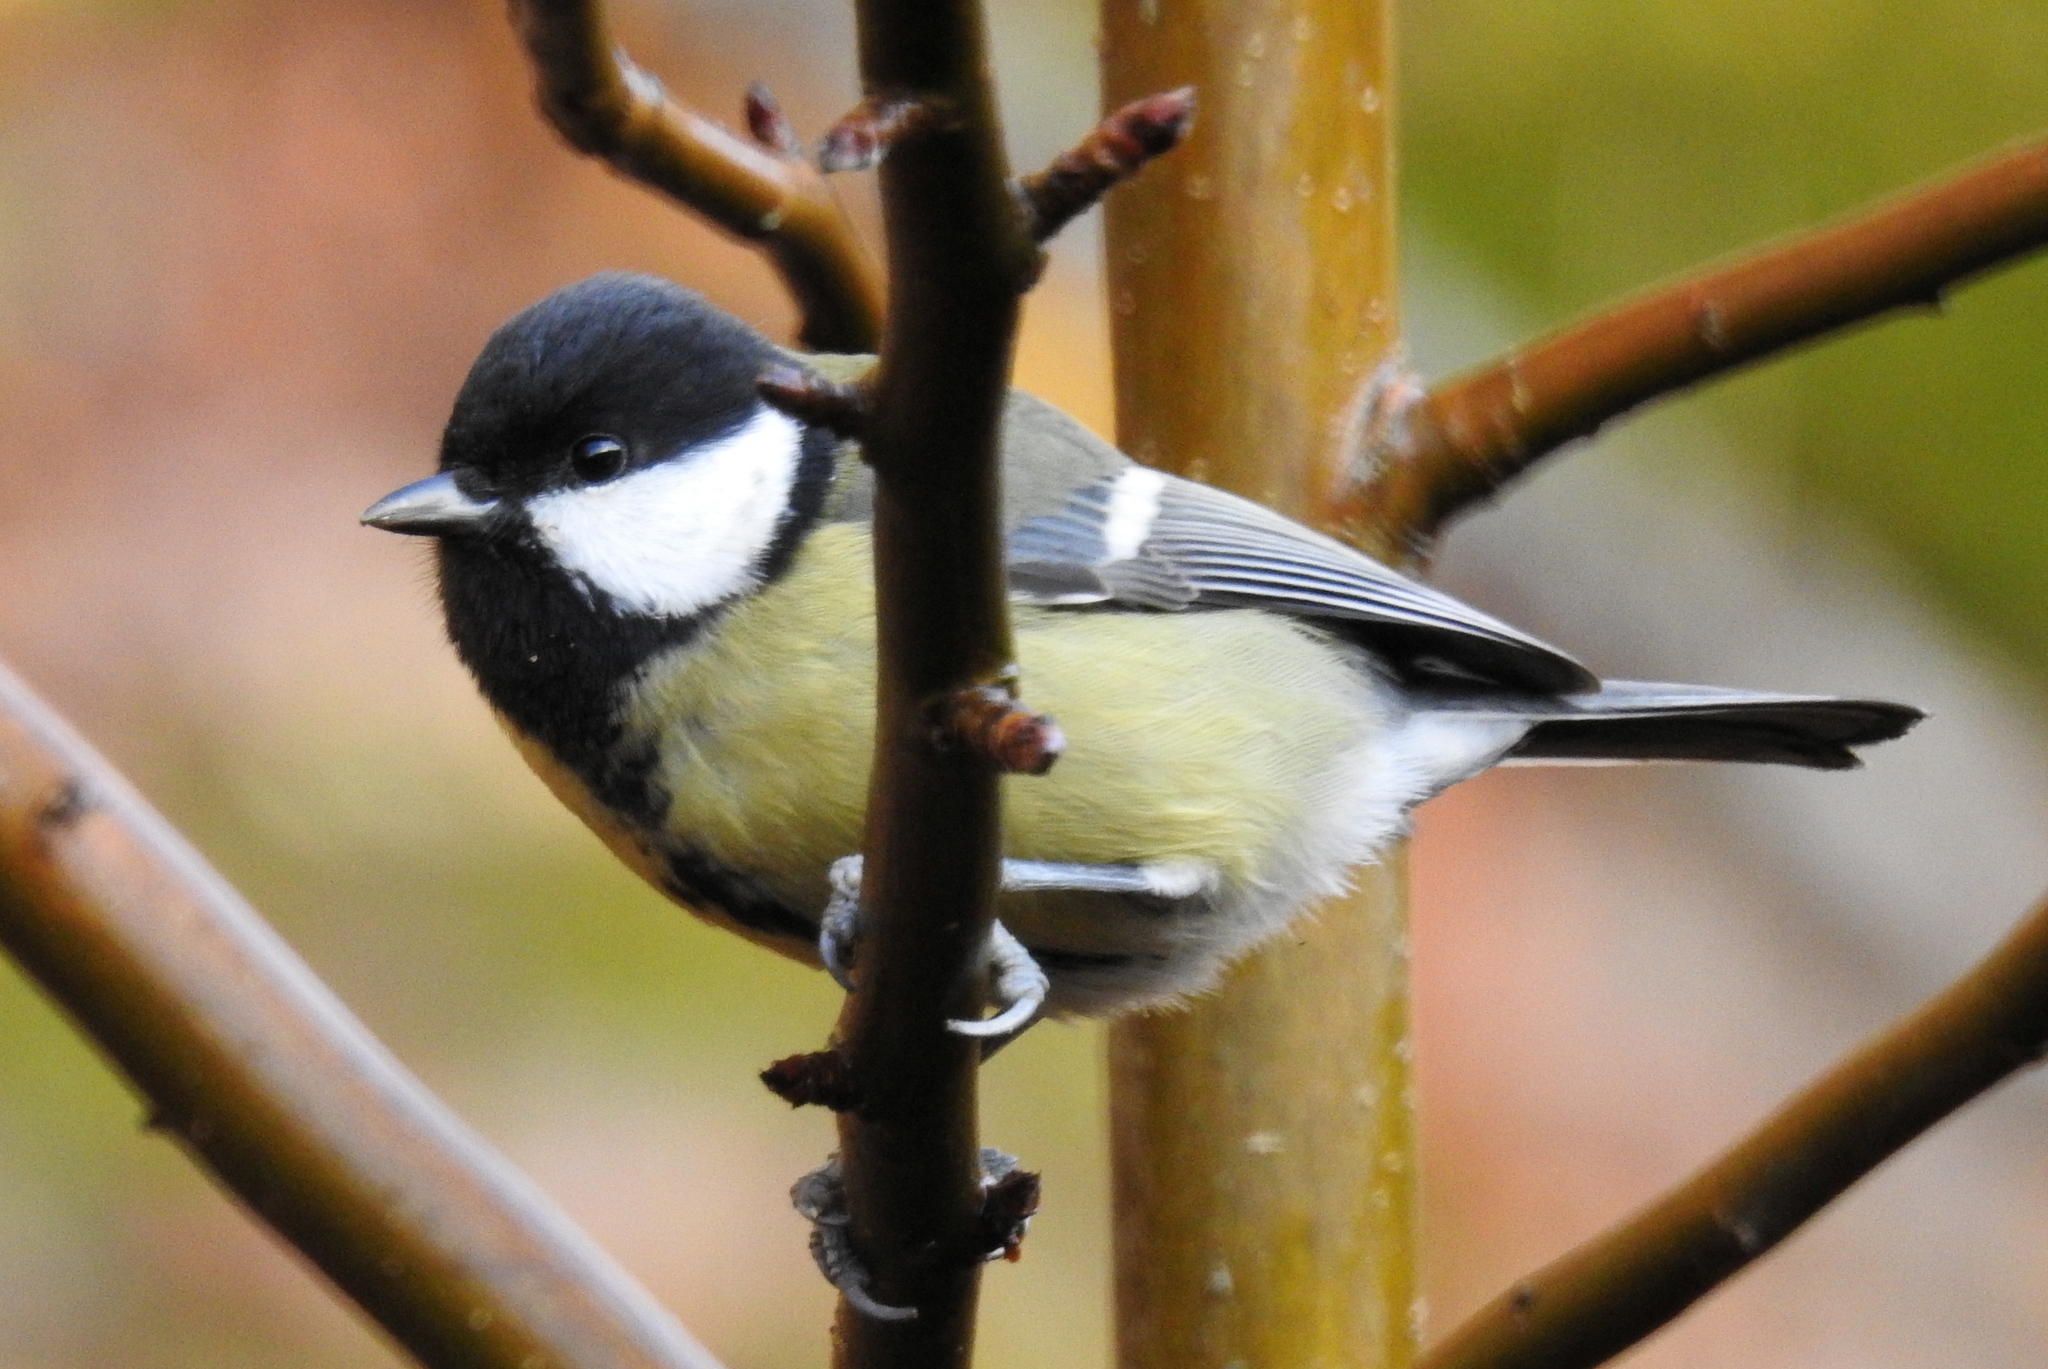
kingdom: Animalia
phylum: Chordata
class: Aves
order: Passeriformes
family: Paridae
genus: Parus
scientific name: Parus major
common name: Great tit
